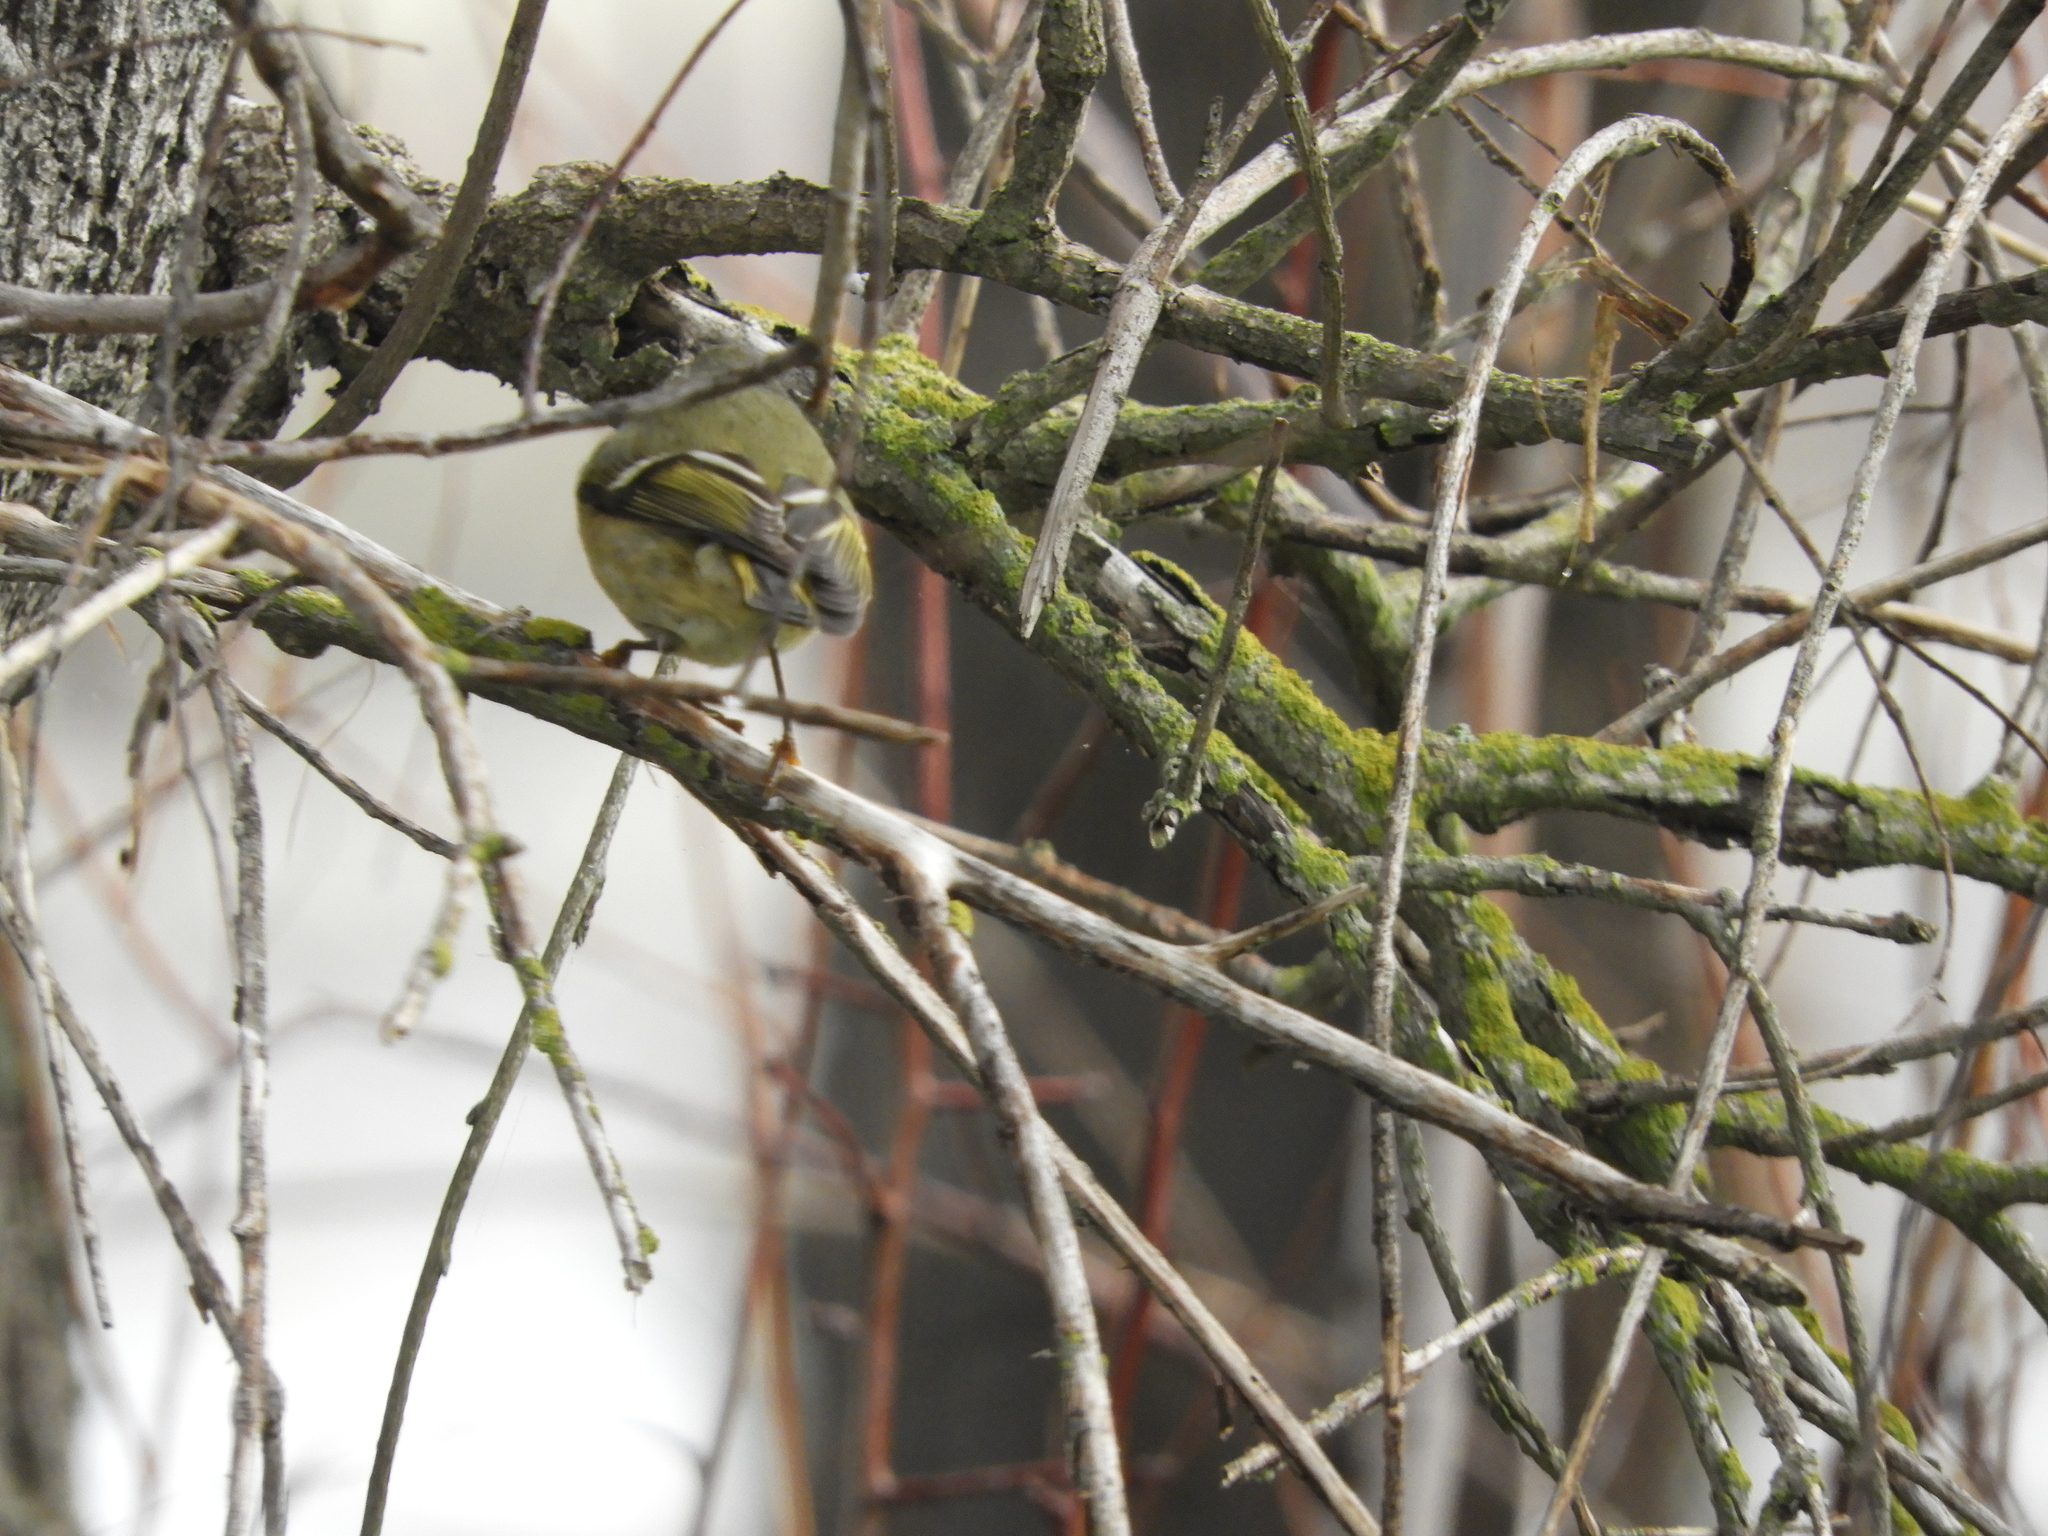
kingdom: Animalia
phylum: Chordata
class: Aves
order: Passeriformes
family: Regulidae
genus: Regulus
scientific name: Regulus calendula
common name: Ruby-crowned kinglet
